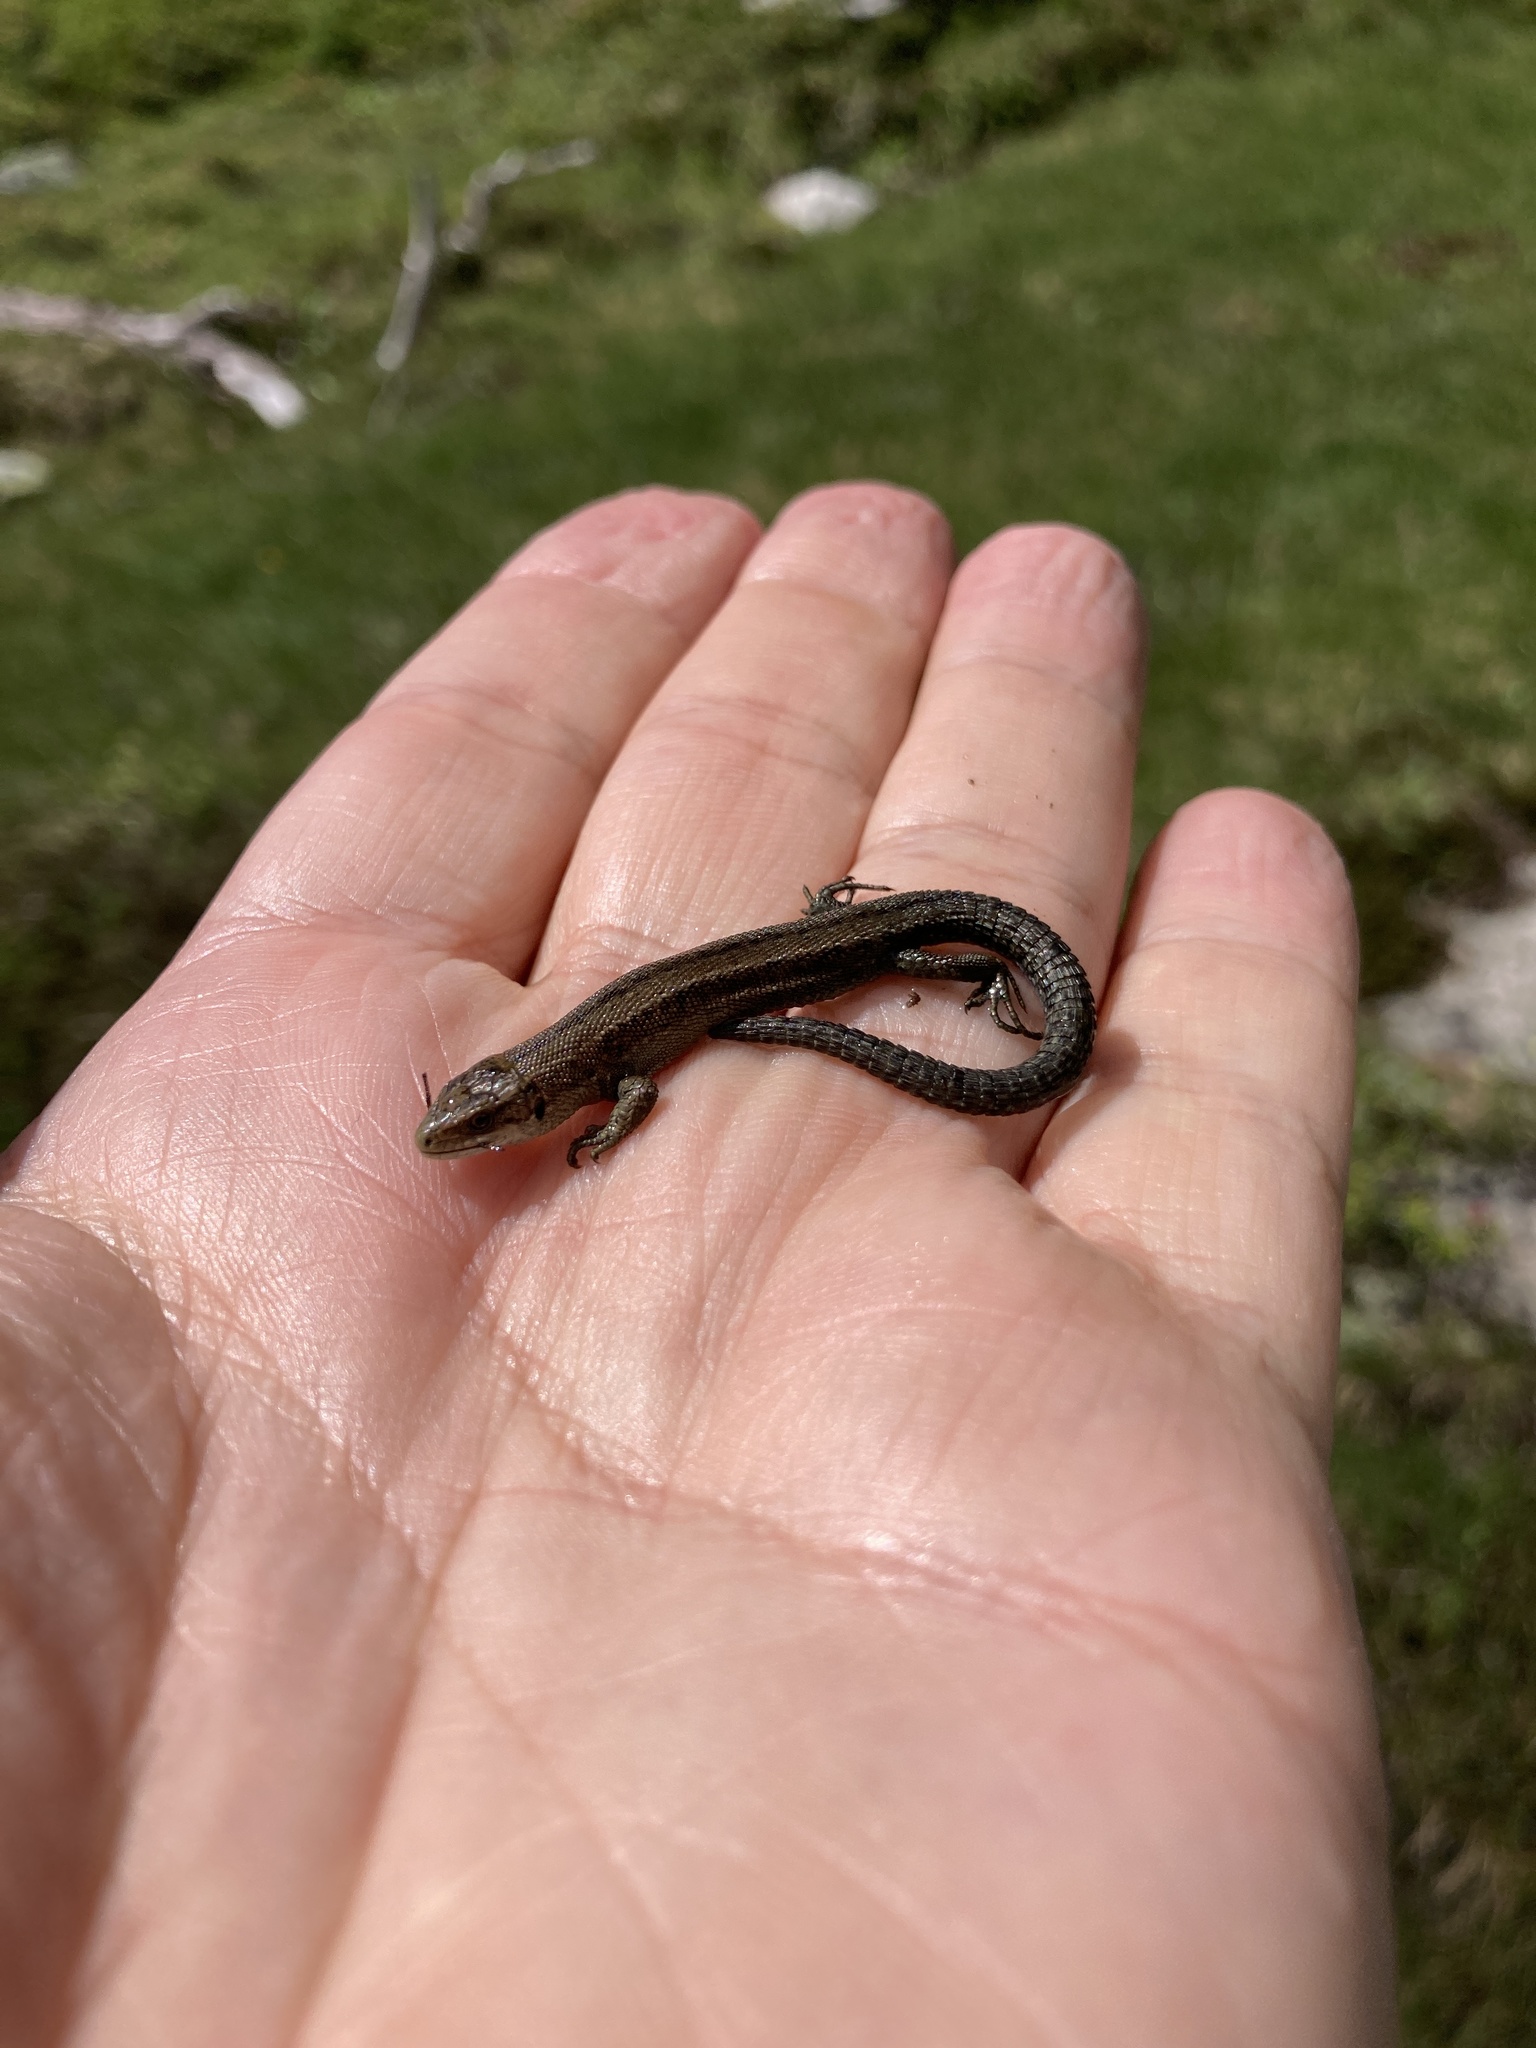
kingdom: Animalia
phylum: Chordata
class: Squamata
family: Lacertidae
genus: Zootoca
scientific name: Zootoca vivipara
